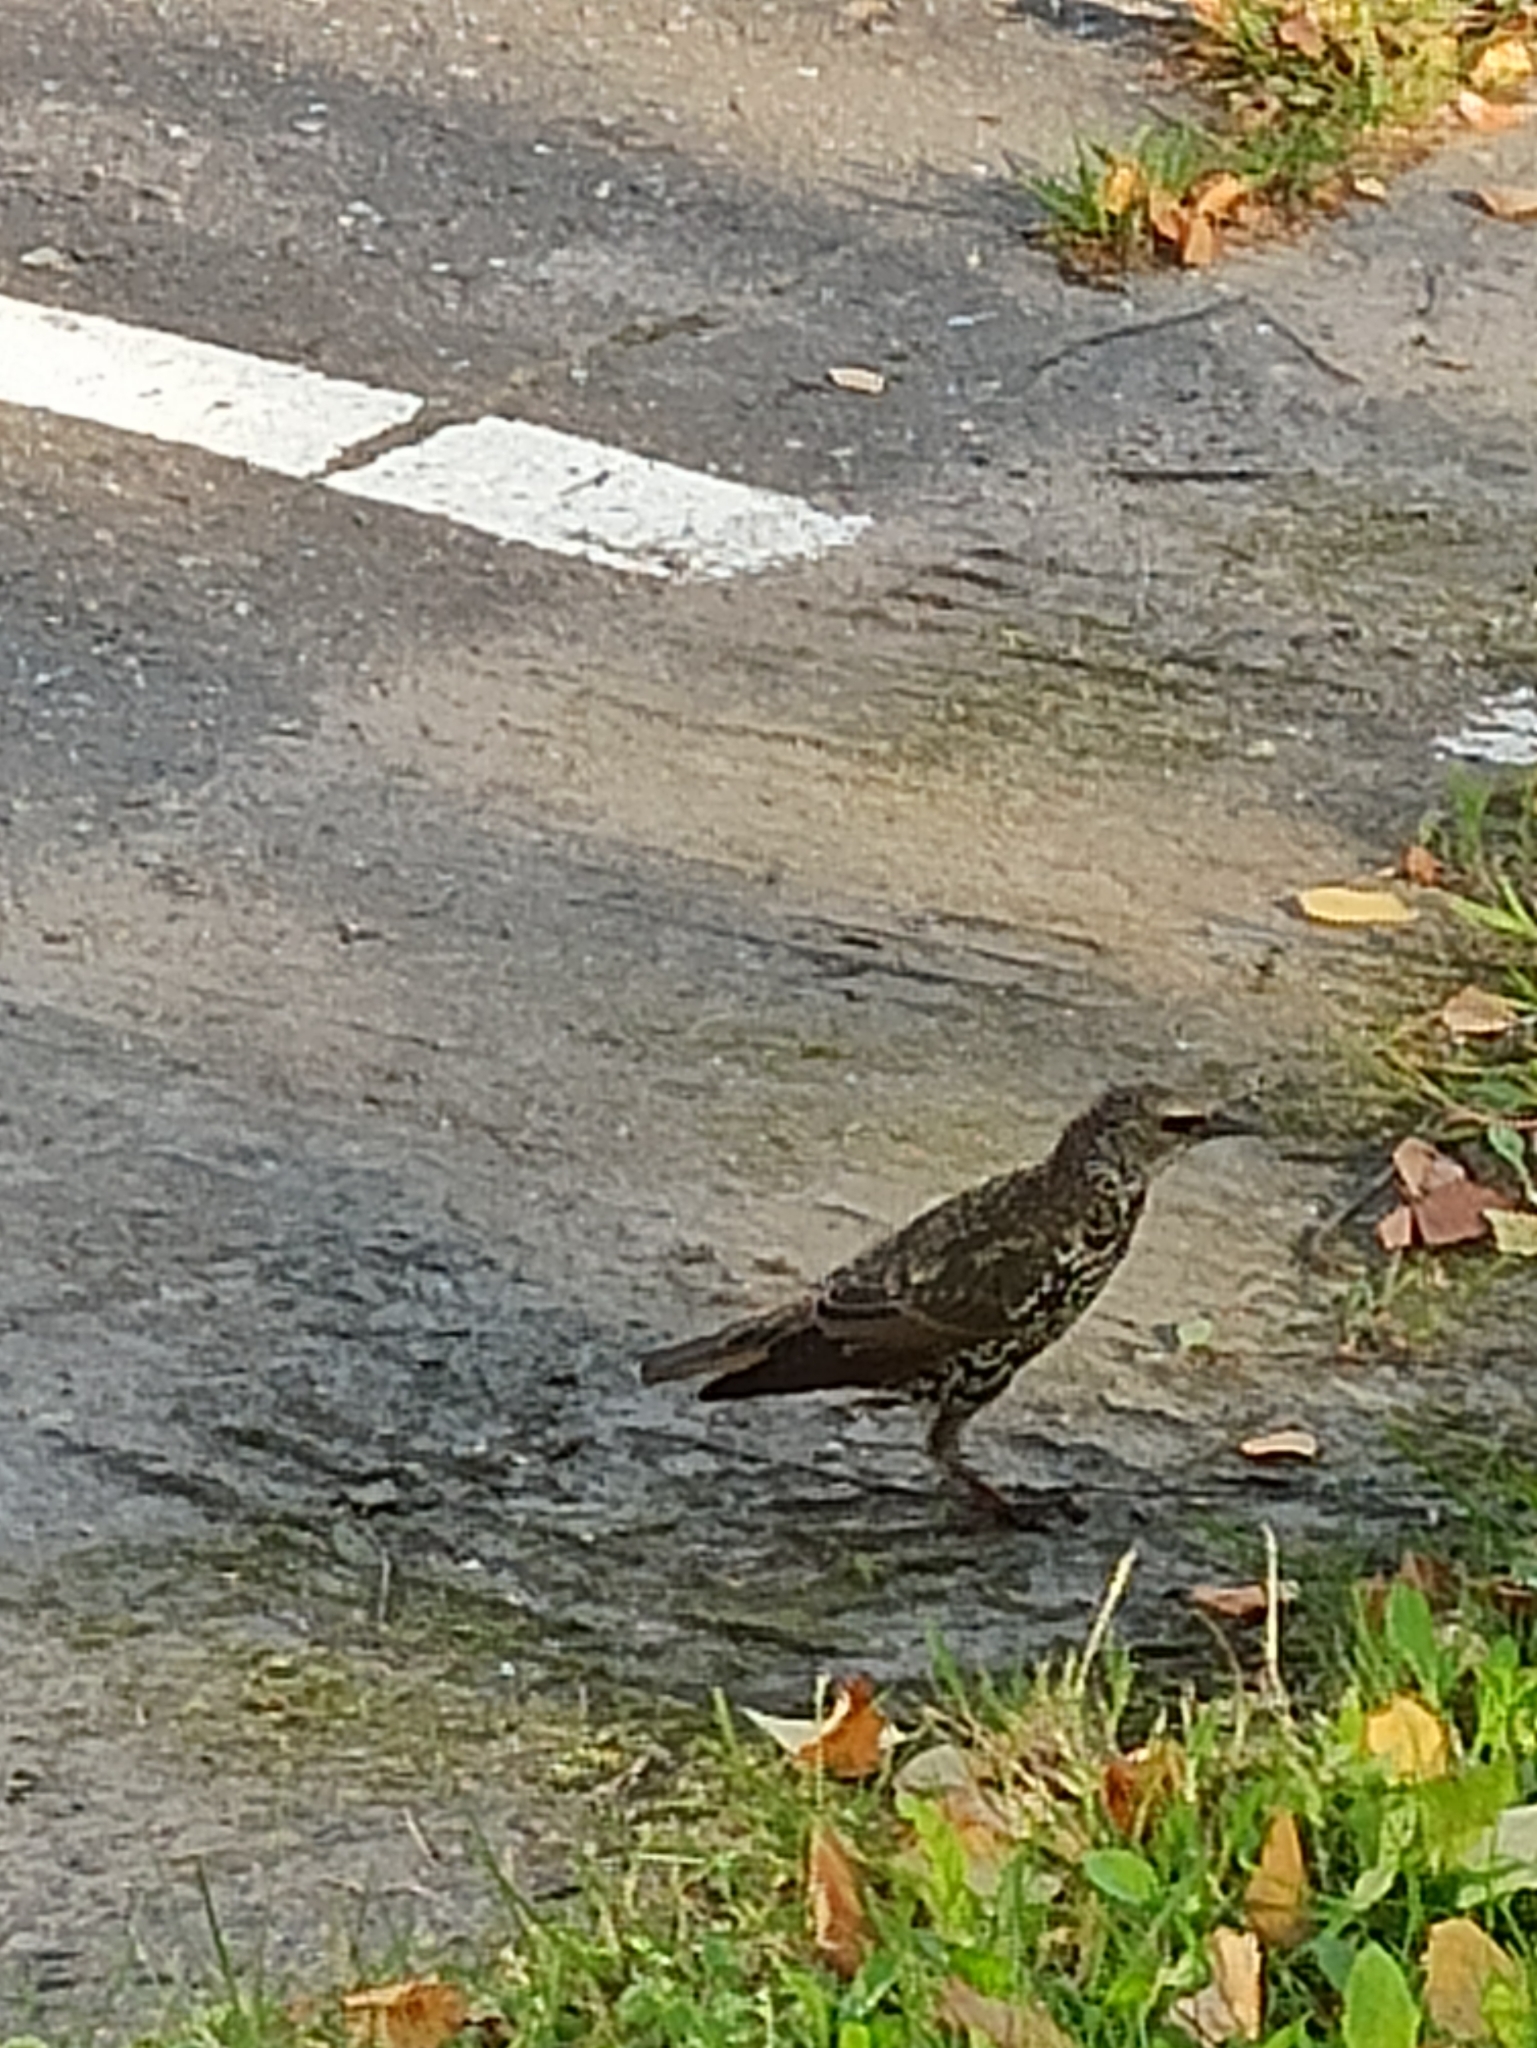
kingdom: Animalia
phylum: Chordata
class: Aves
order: Passeriformes
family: Sturnidae
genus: Sturnus
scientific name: Sturnus vulgaris
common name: Common starling
